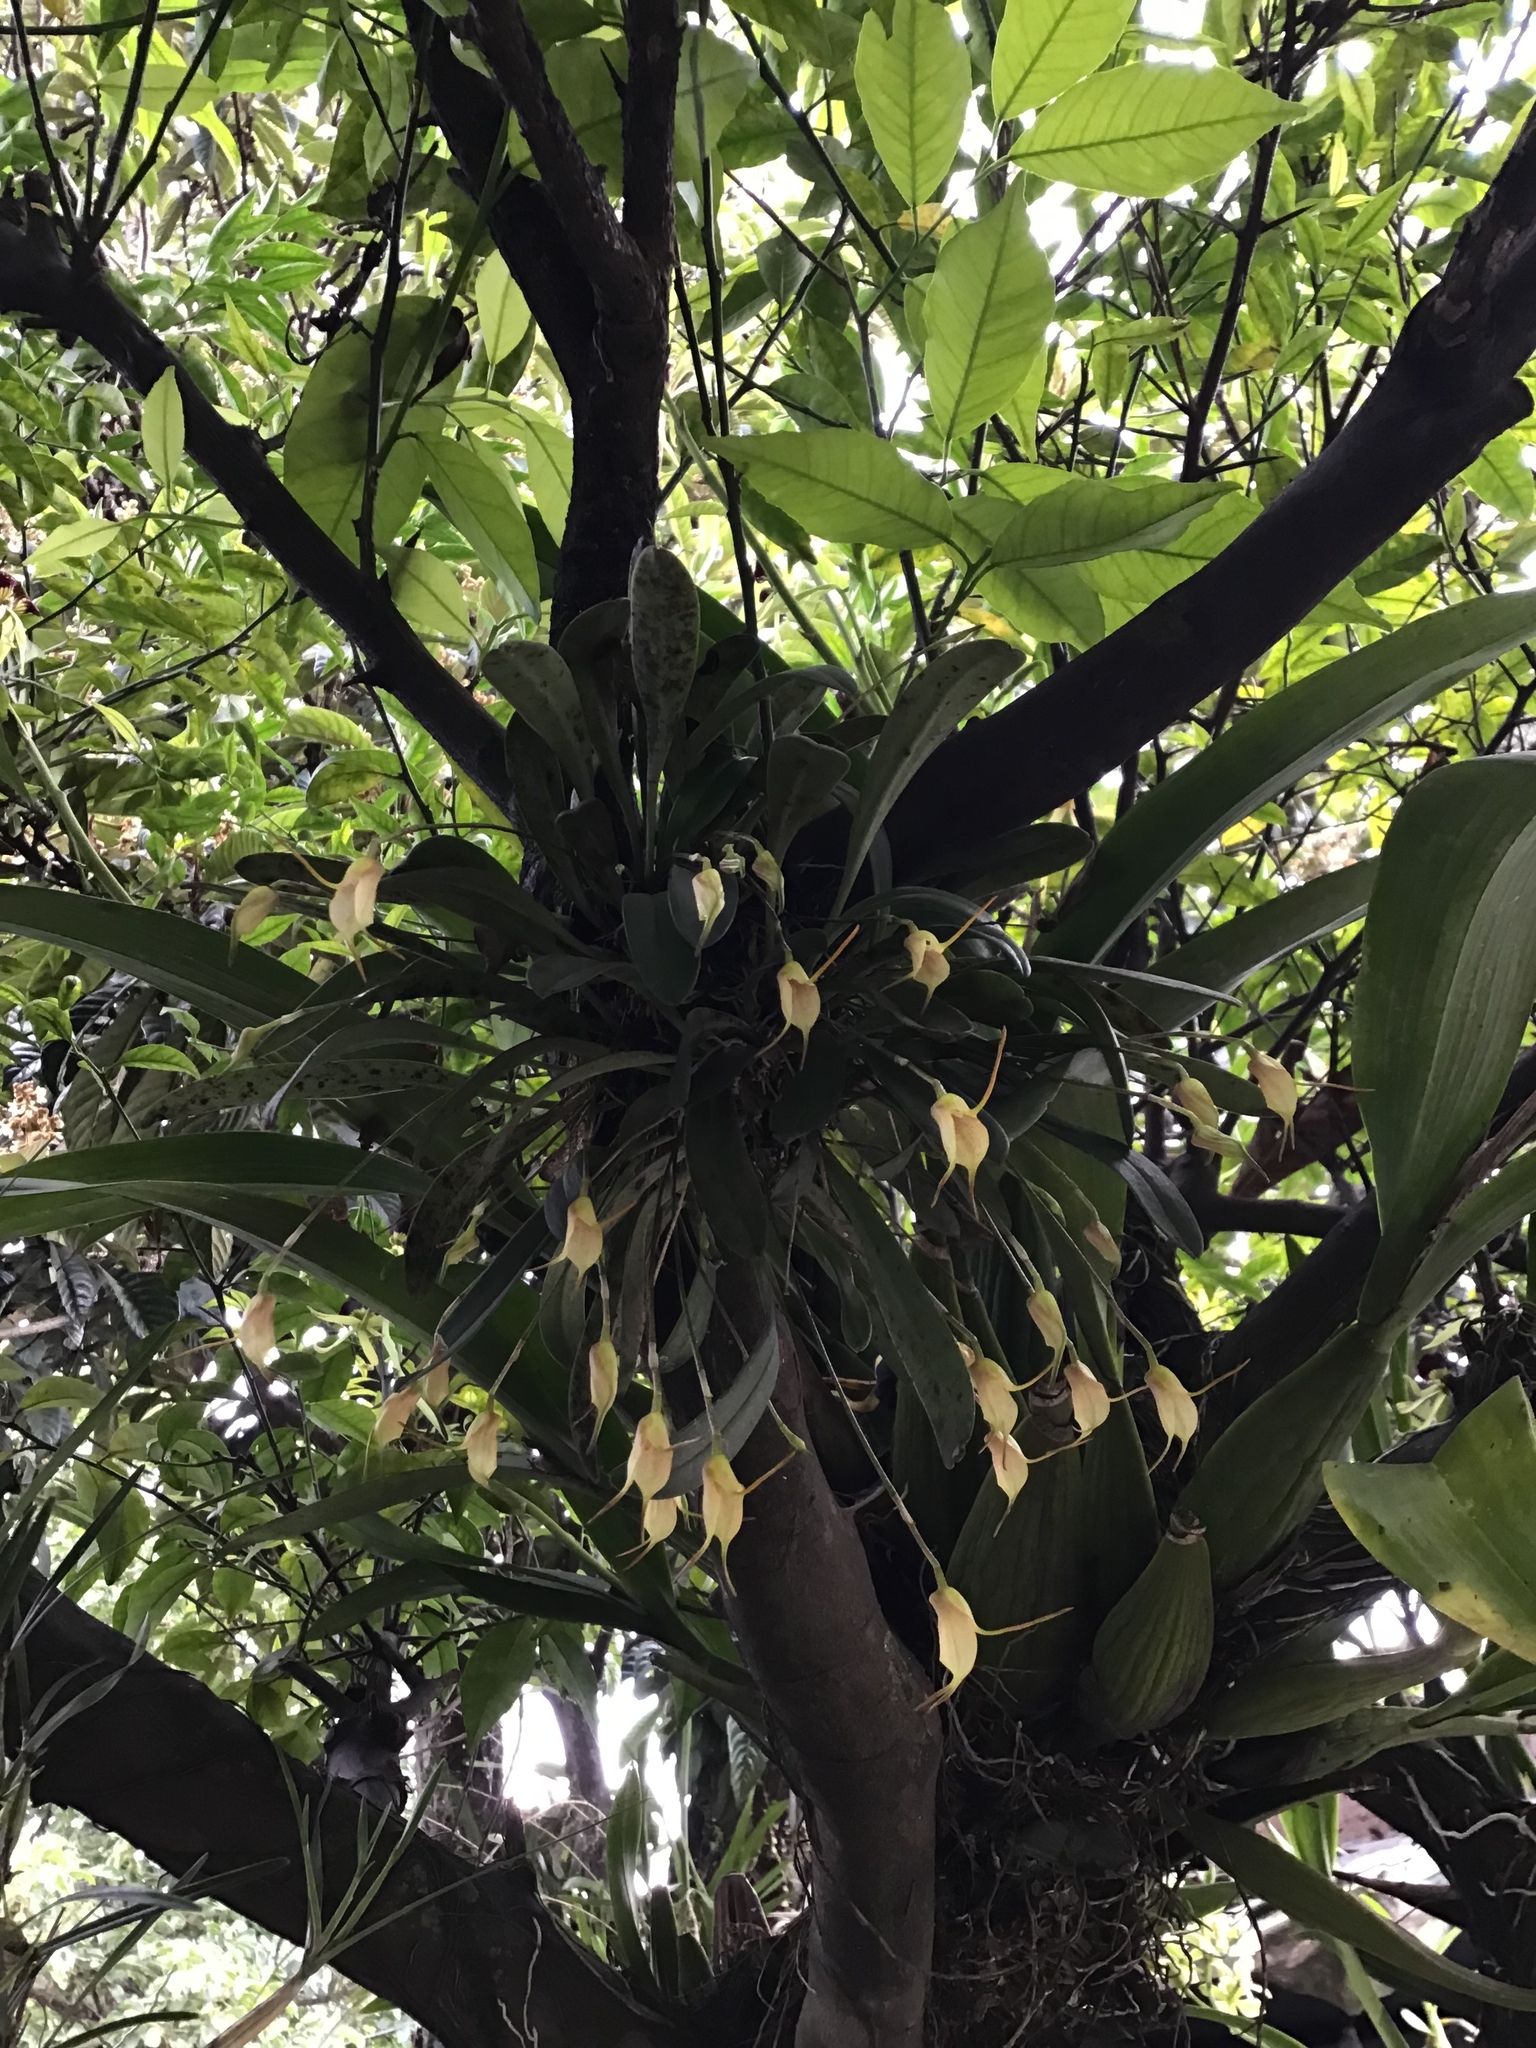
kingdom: Plantae
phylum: Tracheophyta
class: Liliopsida
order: Asparagales
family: Orchidaceae
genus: Masdevallia
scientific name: Masdevallia floribunda
